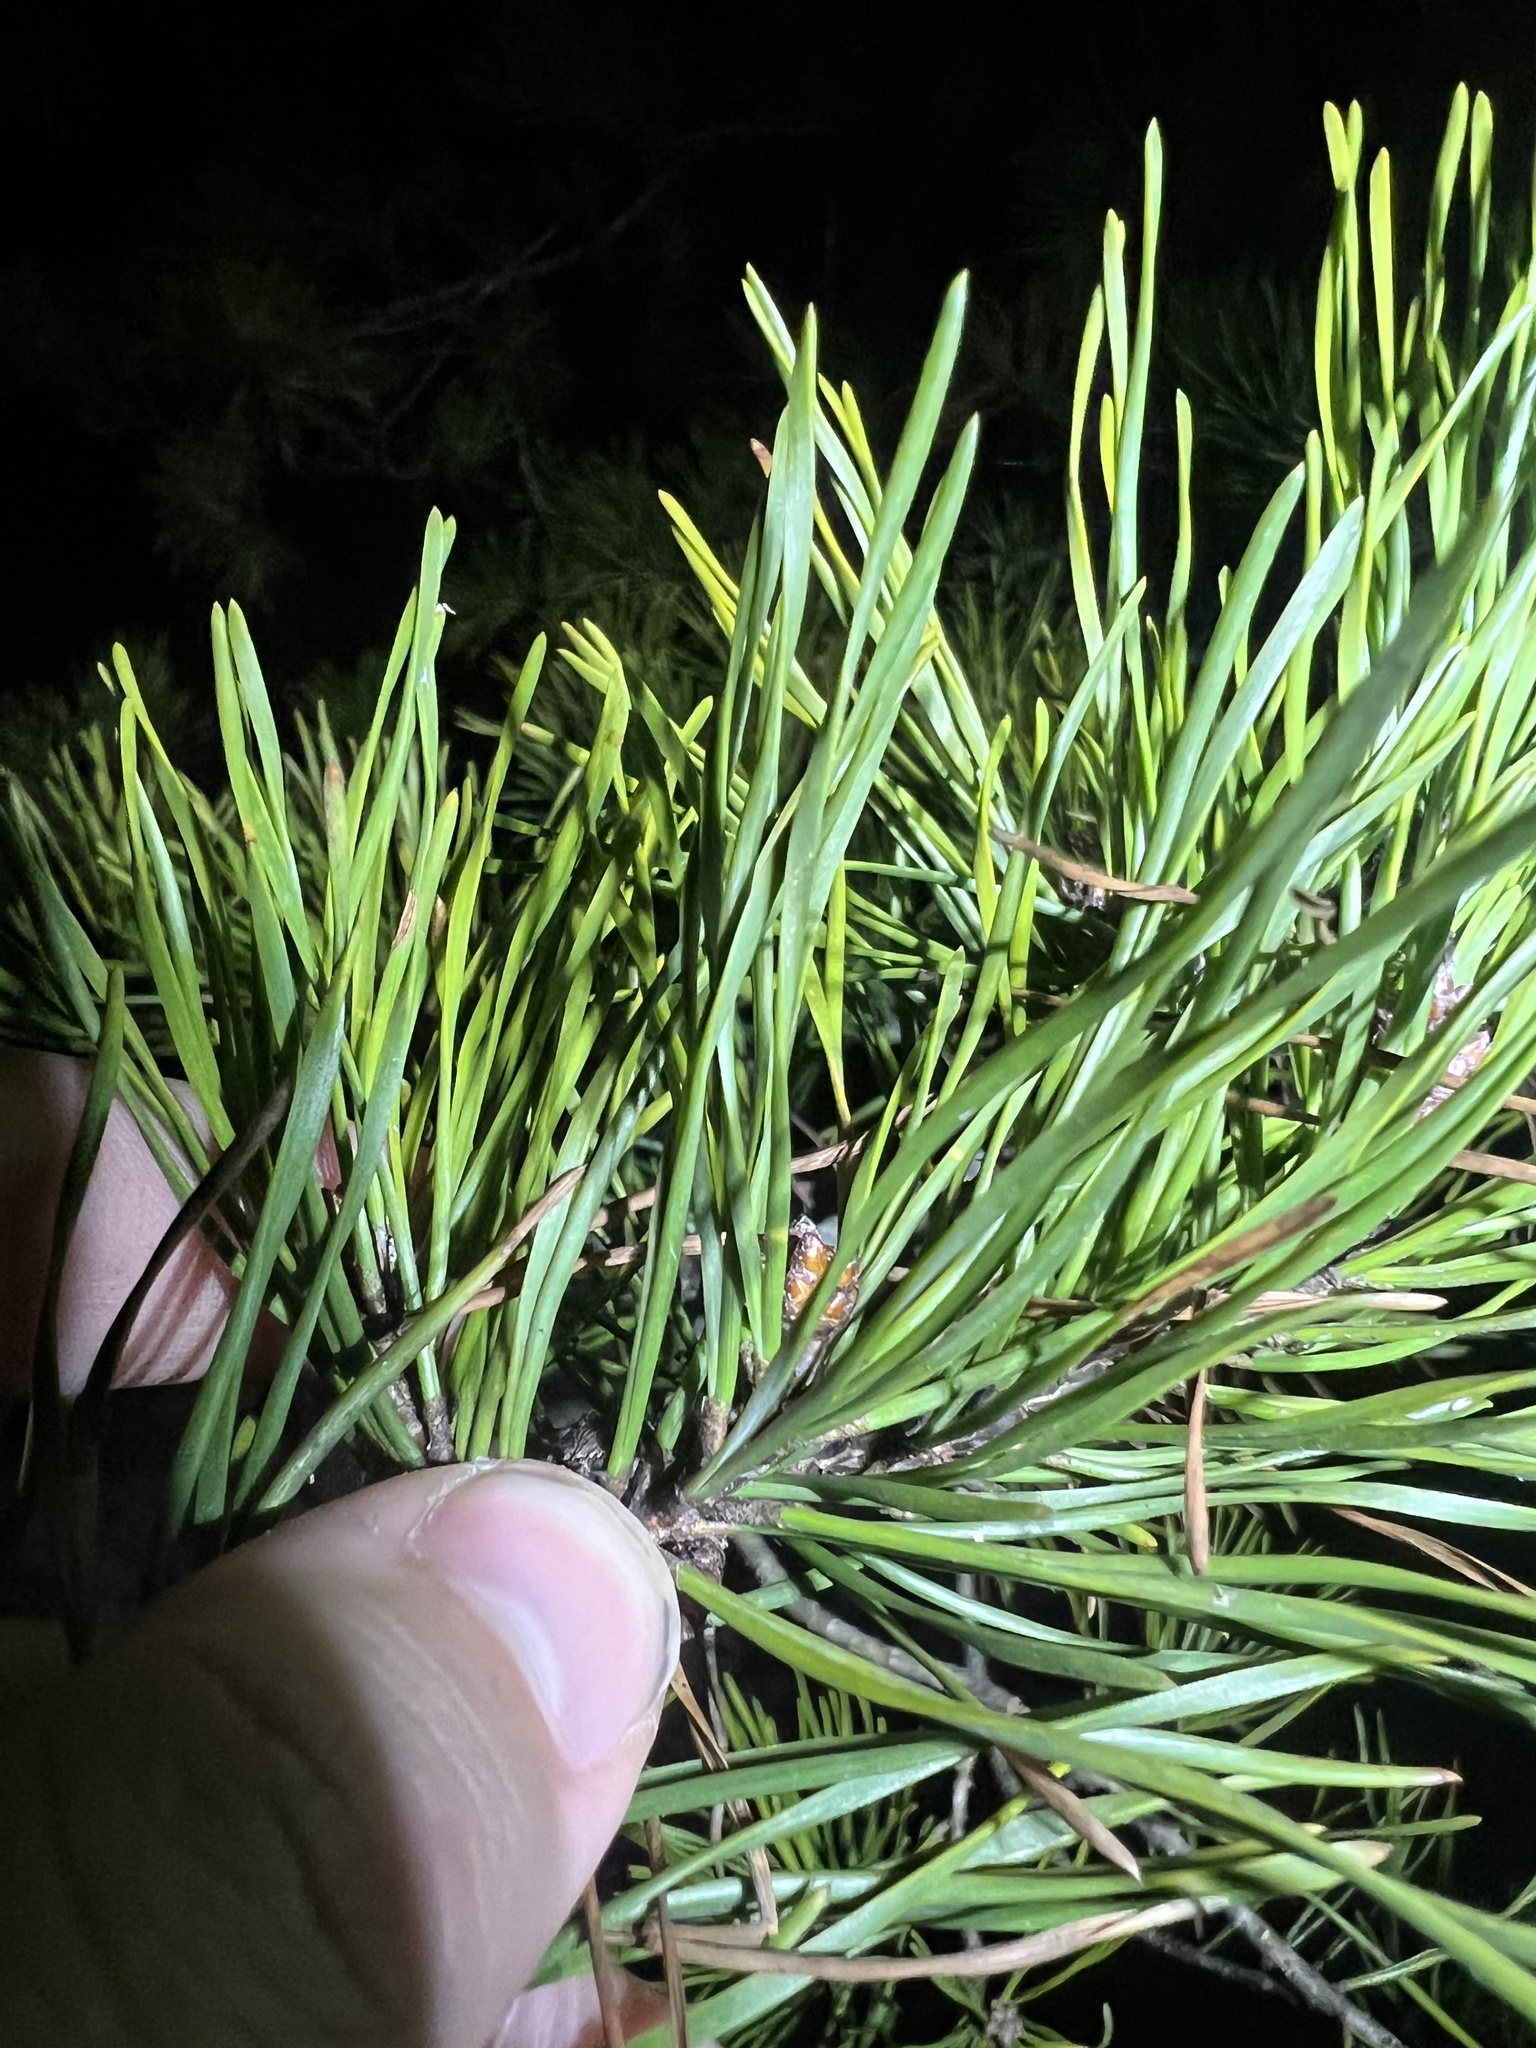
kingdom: Plantae
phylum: Tracheophyta
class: Pinopsida
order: Pinales
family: Pinaceae
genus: Pinus
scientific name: Pinus virginiana
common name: Scrub pine
